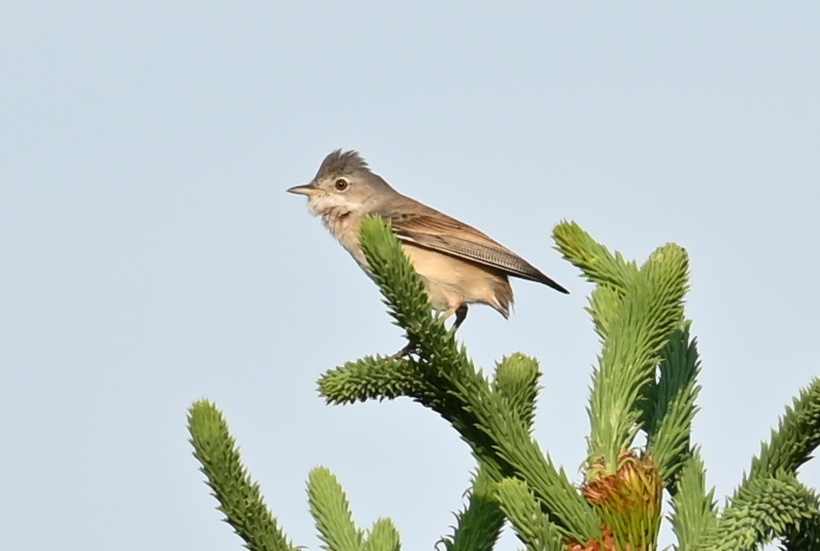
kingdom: Animalia
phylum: Chordata
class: Aves
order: Passeriformes
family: Sylviidae
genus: Sylvia
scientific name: Sylvia communis
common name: Common whitethroat
